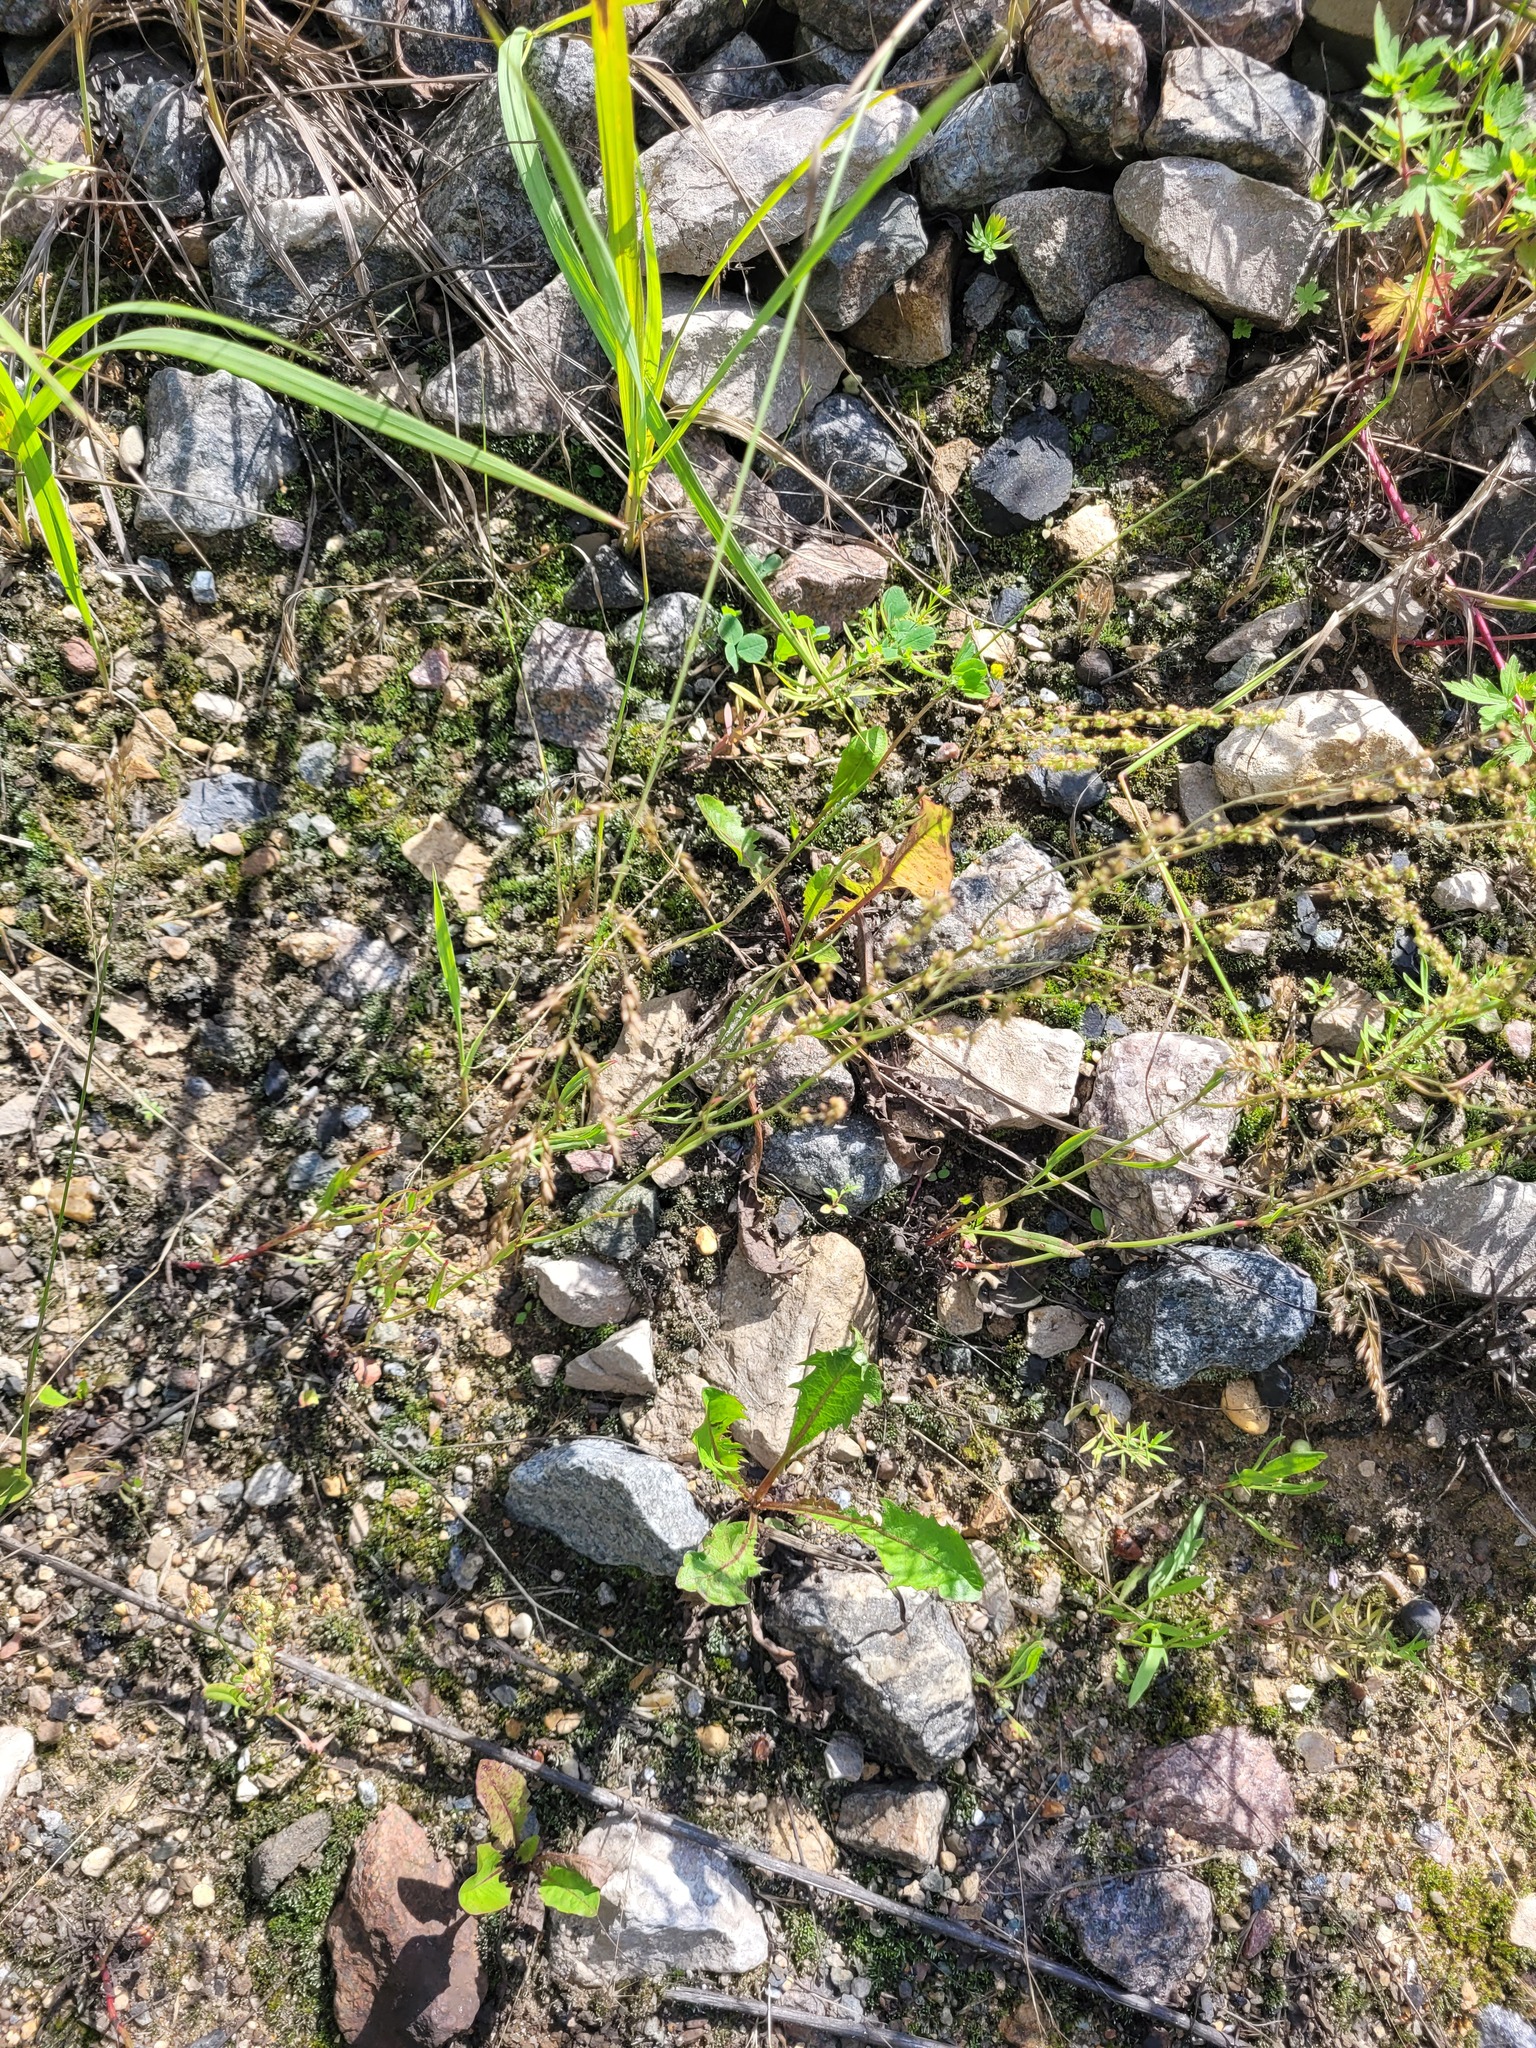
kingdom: Plantae
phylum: Tracheophyta
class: Magnoliopsida
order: Caryophyllales
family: Polygonaceae
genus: Rumex
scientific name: Rumex acetosella
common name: Common sheep sorrel
